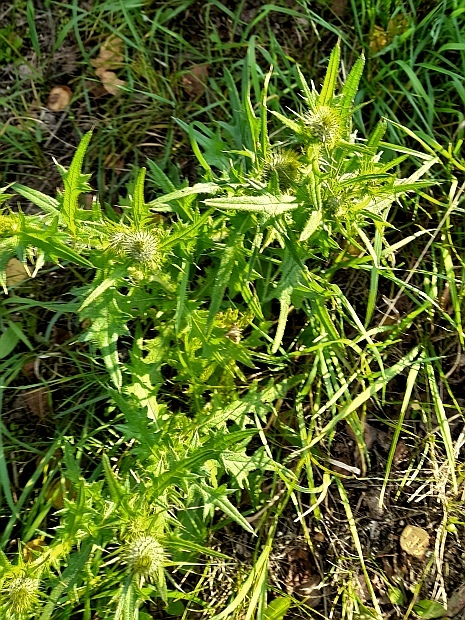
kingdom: Plantae
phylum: Tracheophyta
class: Magnoliopsida
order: Asterales
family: Asteraceae
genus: Cirsium
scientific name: Cirsium vulgare
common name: Bull thistle
